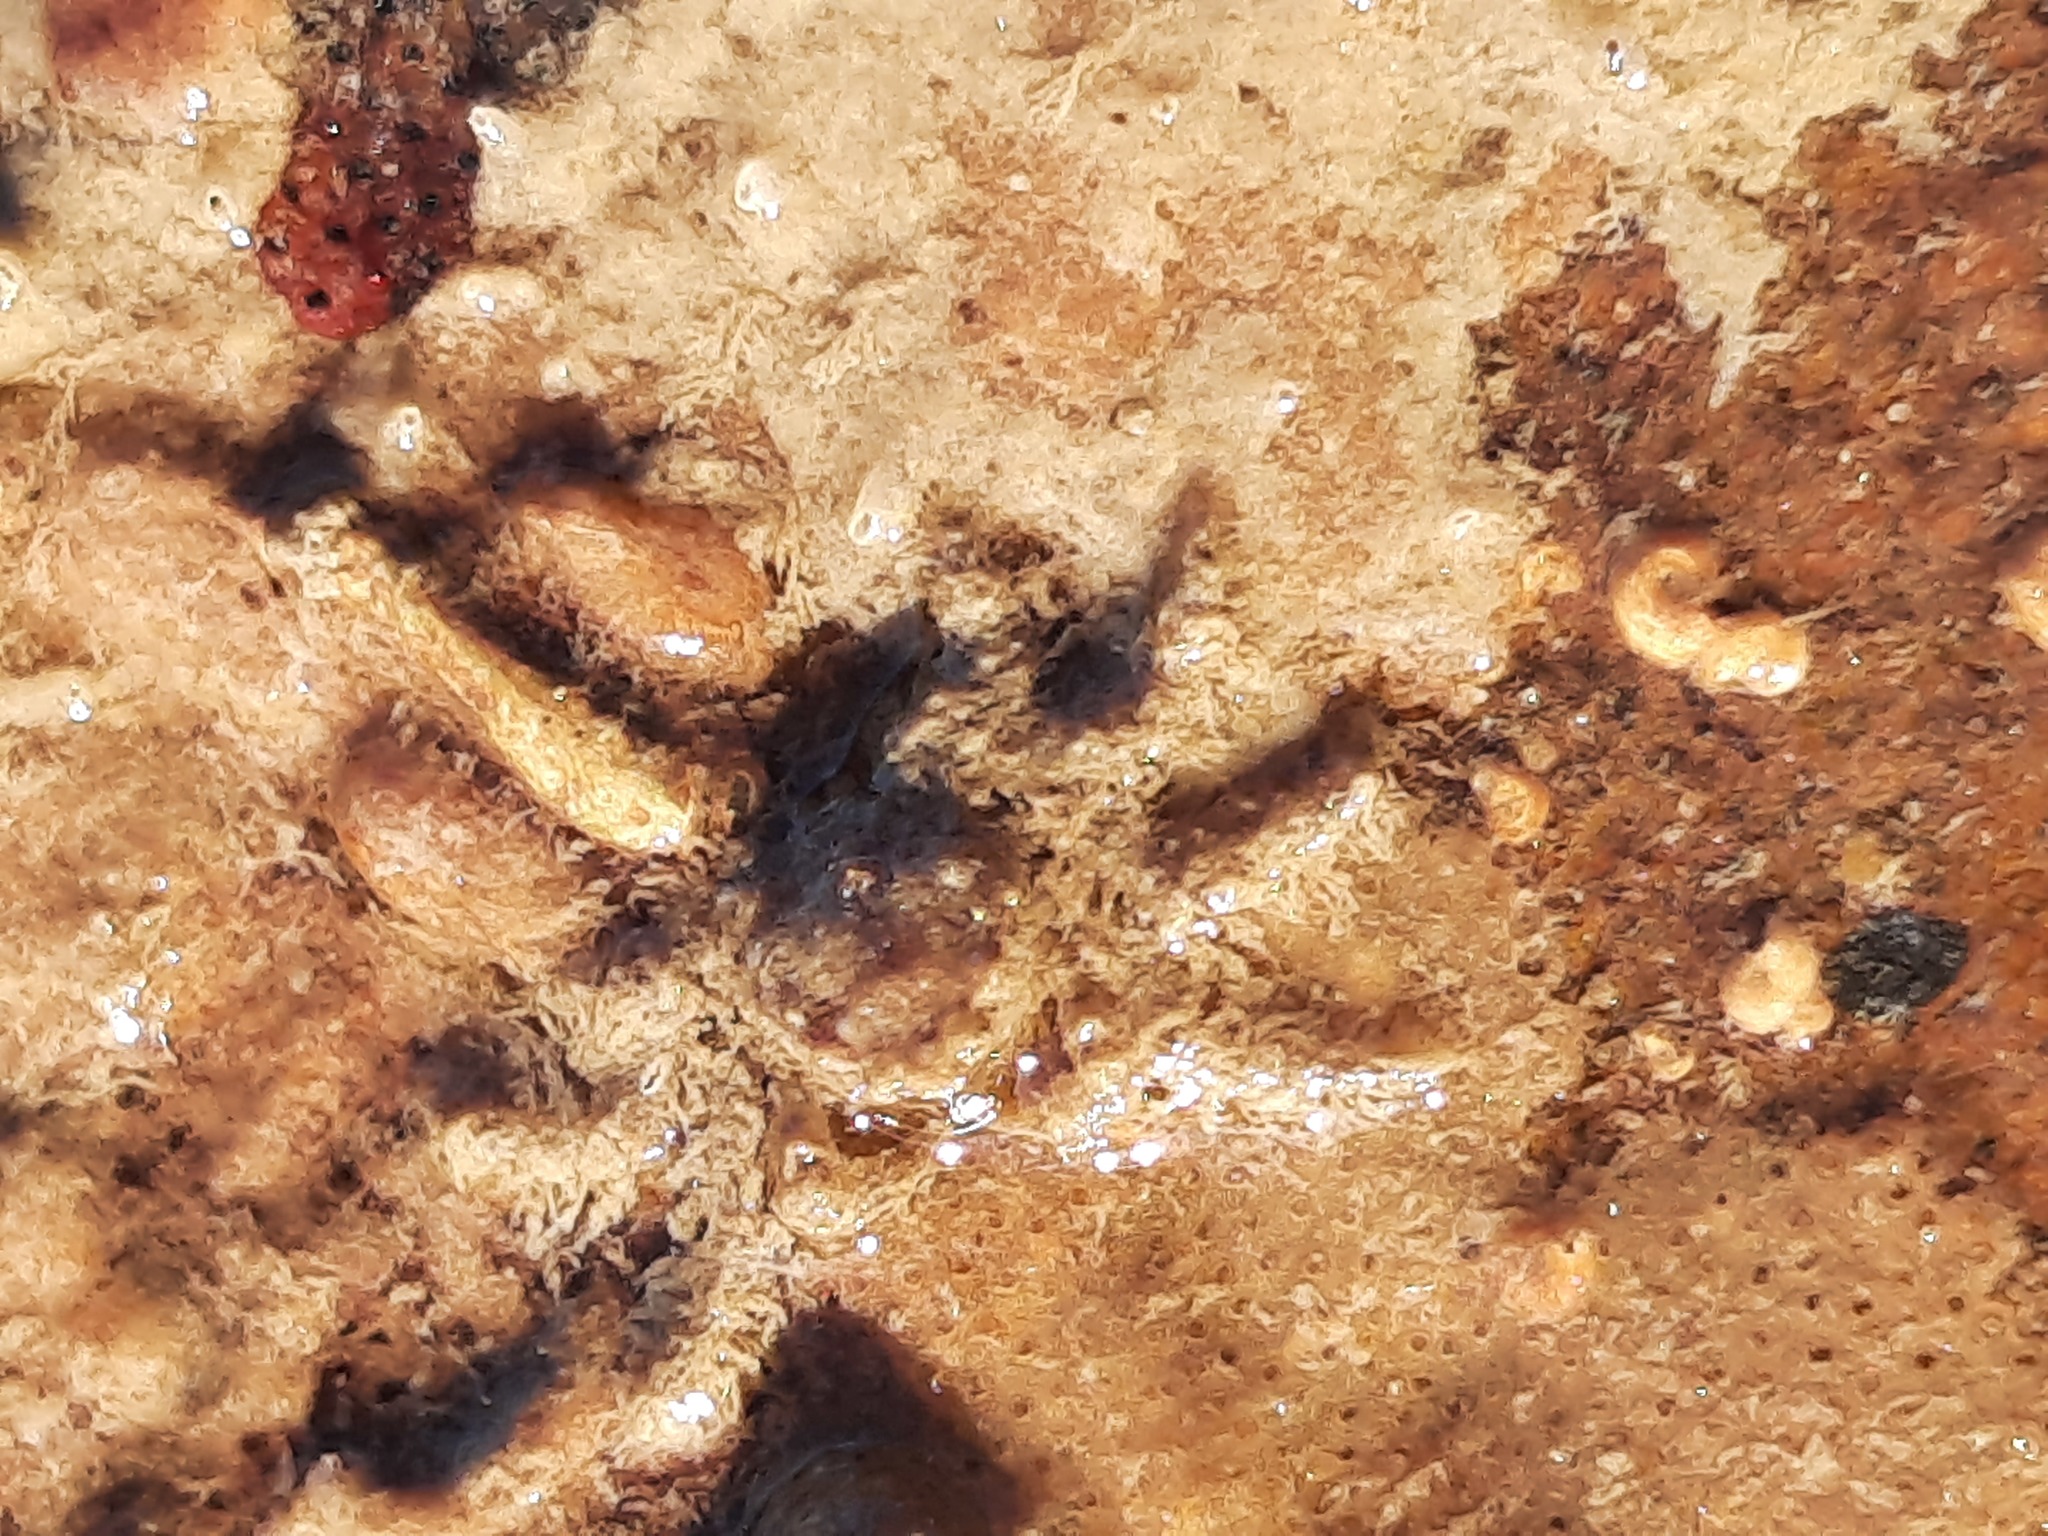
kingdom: Animalia
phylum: Arthropoda
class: Malacostraca
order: Decapoda
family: Hymenosomatidae
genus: Neohymenicus
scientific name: Neohymenicus pubescens
